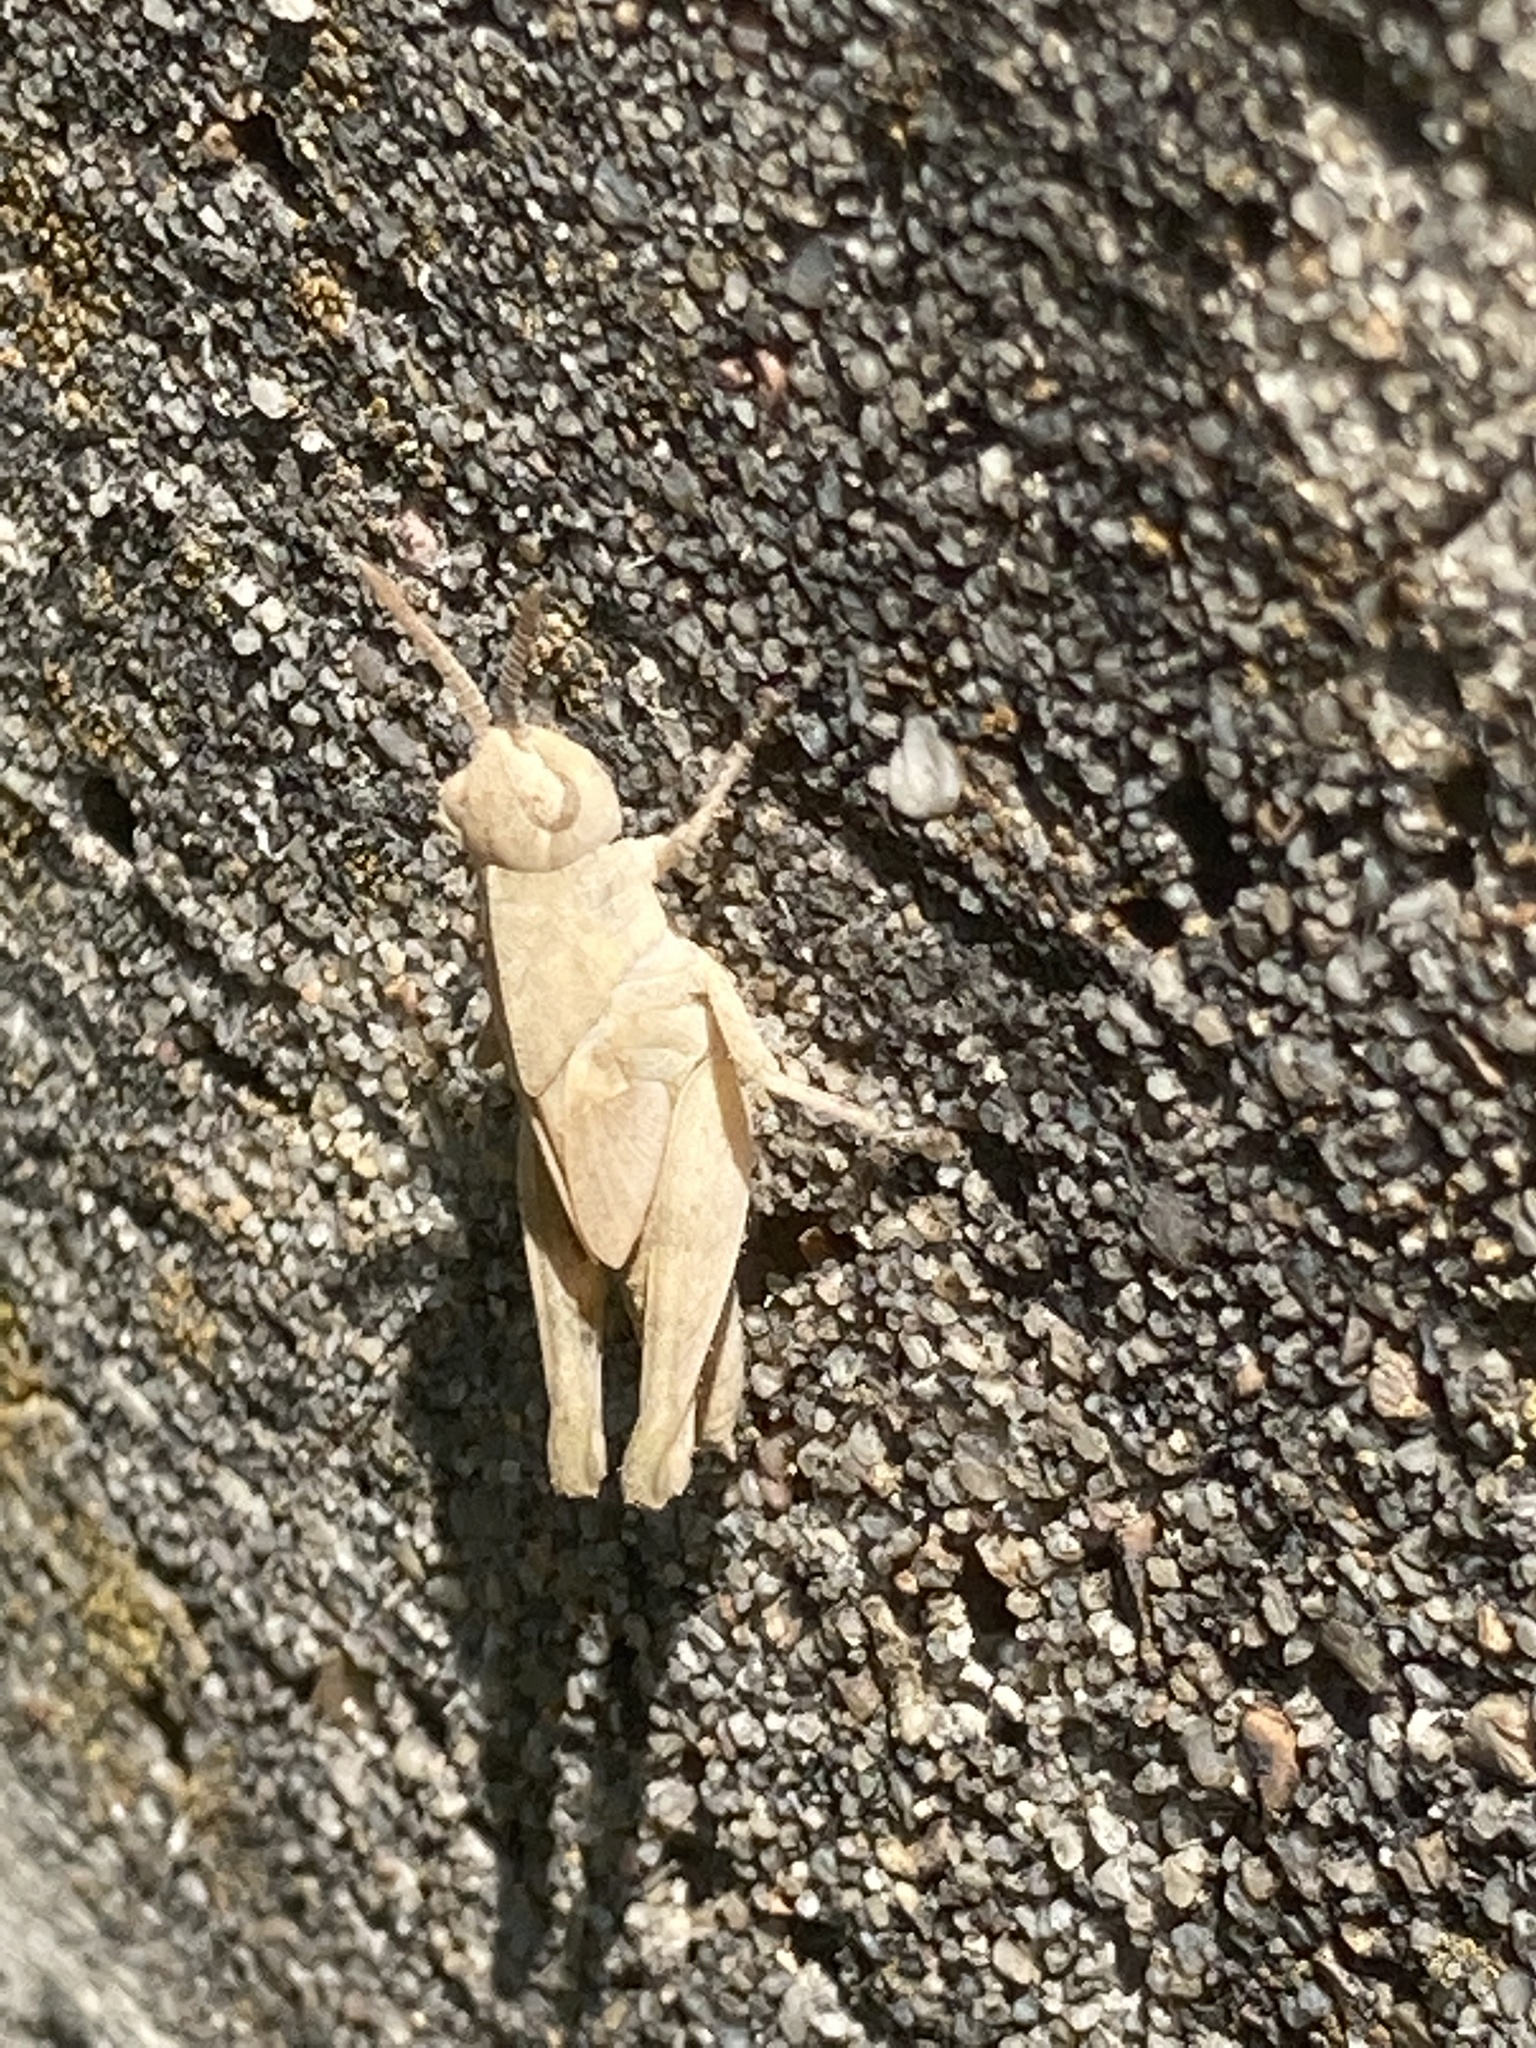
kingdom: Animalia
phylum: Arthropoda
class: Insecta
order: Orthoptera
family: Acrididae
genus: Chortophaga
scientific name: Chortophaga viridifasciata
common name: Green-striped grasshopper
